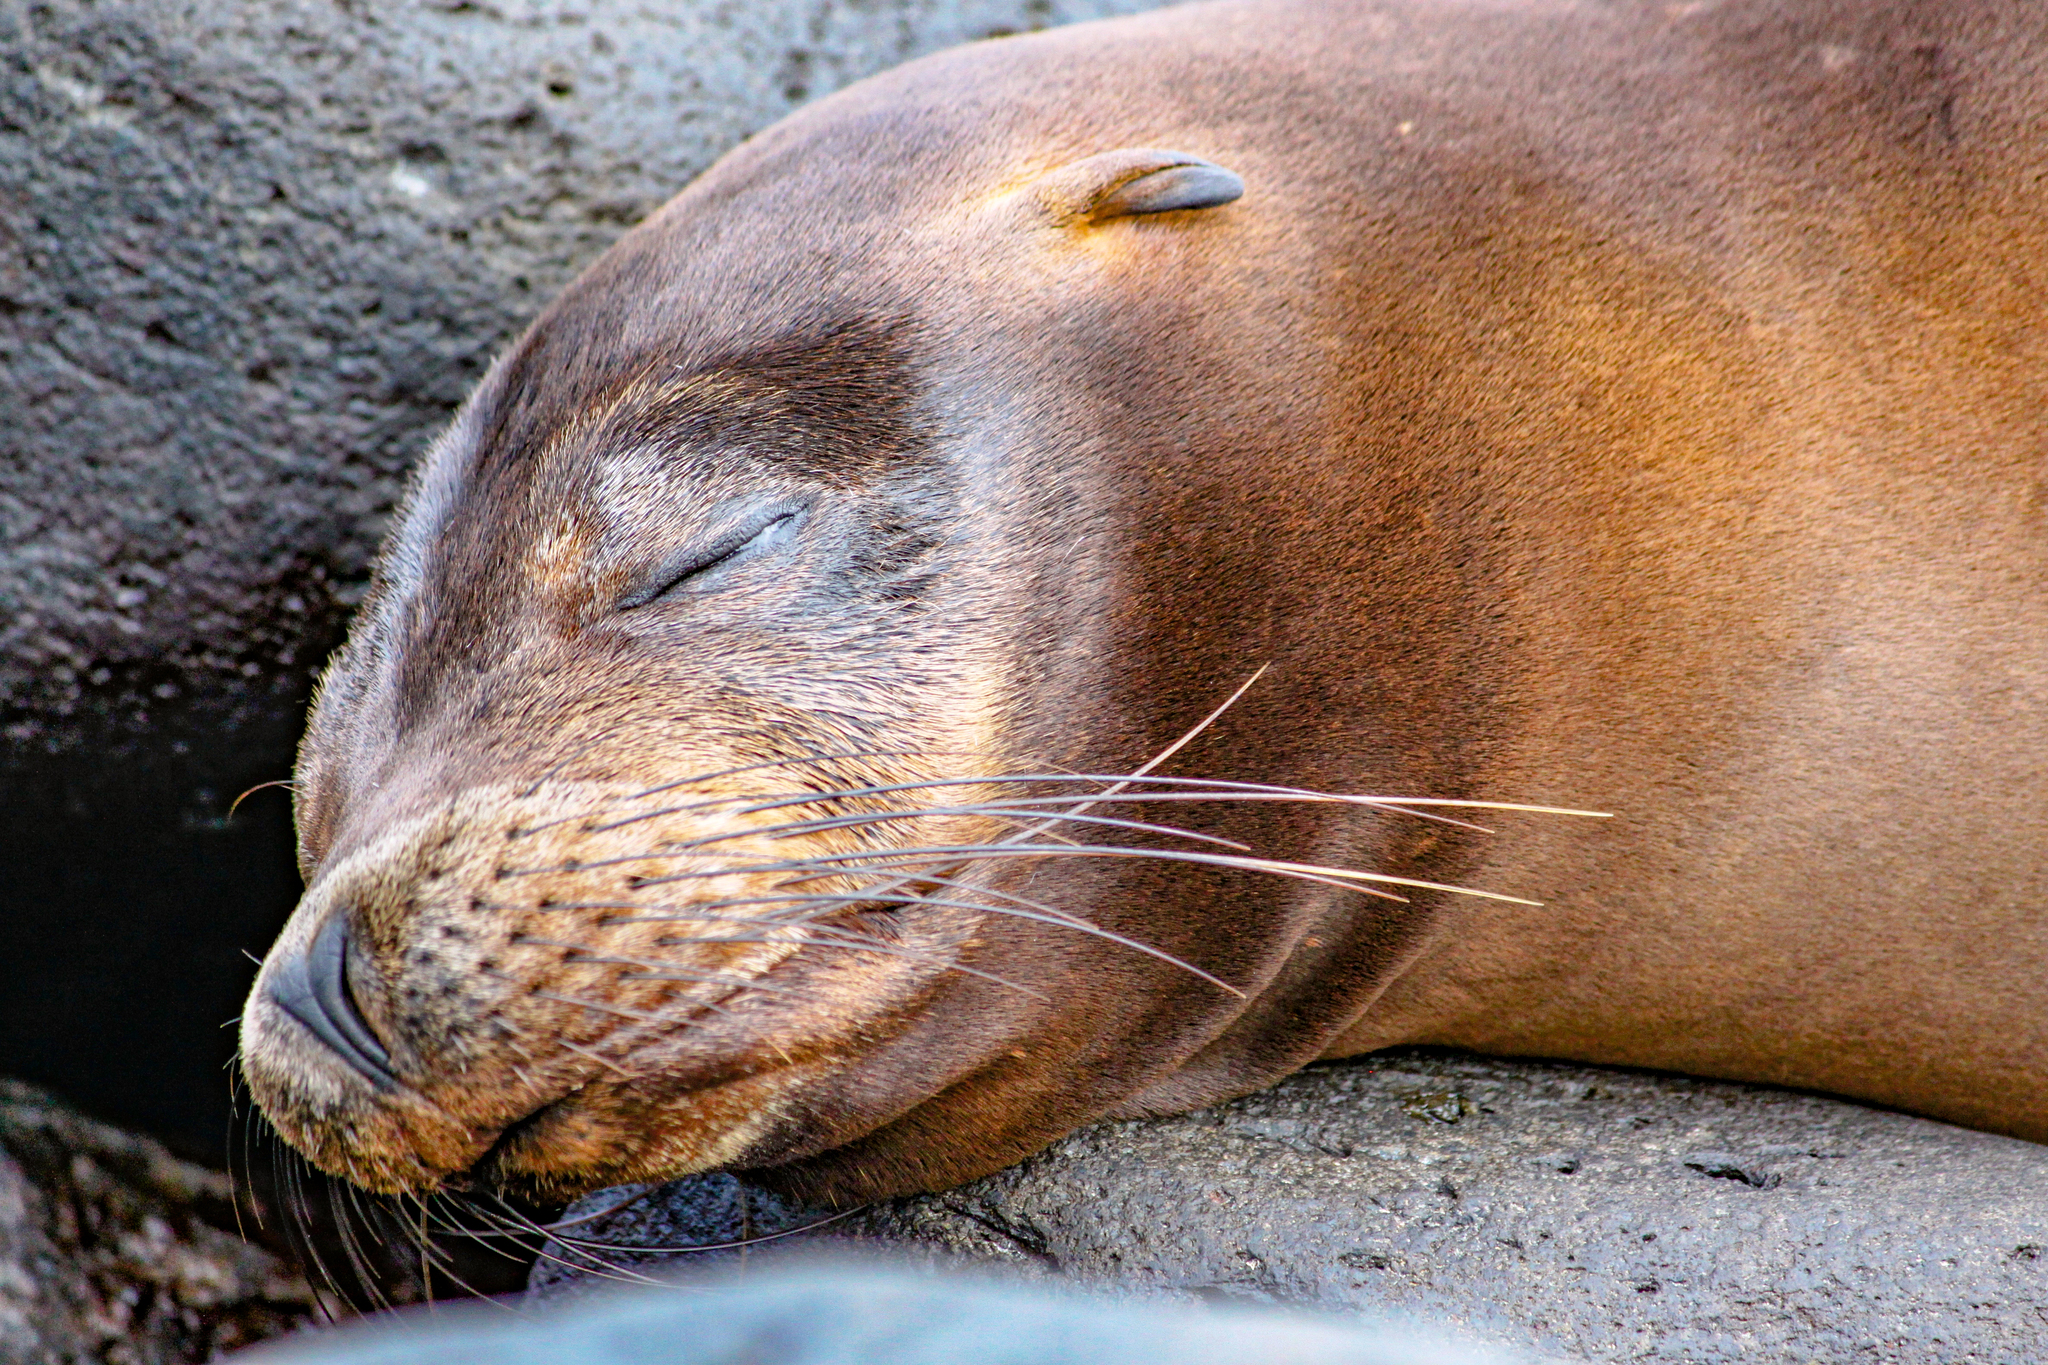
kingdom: Animalia
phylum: Chordata
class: Mammalia
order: Carnivora
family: Otariidae
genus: Zalophus
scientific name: Zalophus wollebaeki
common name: Galapagos sea lion
